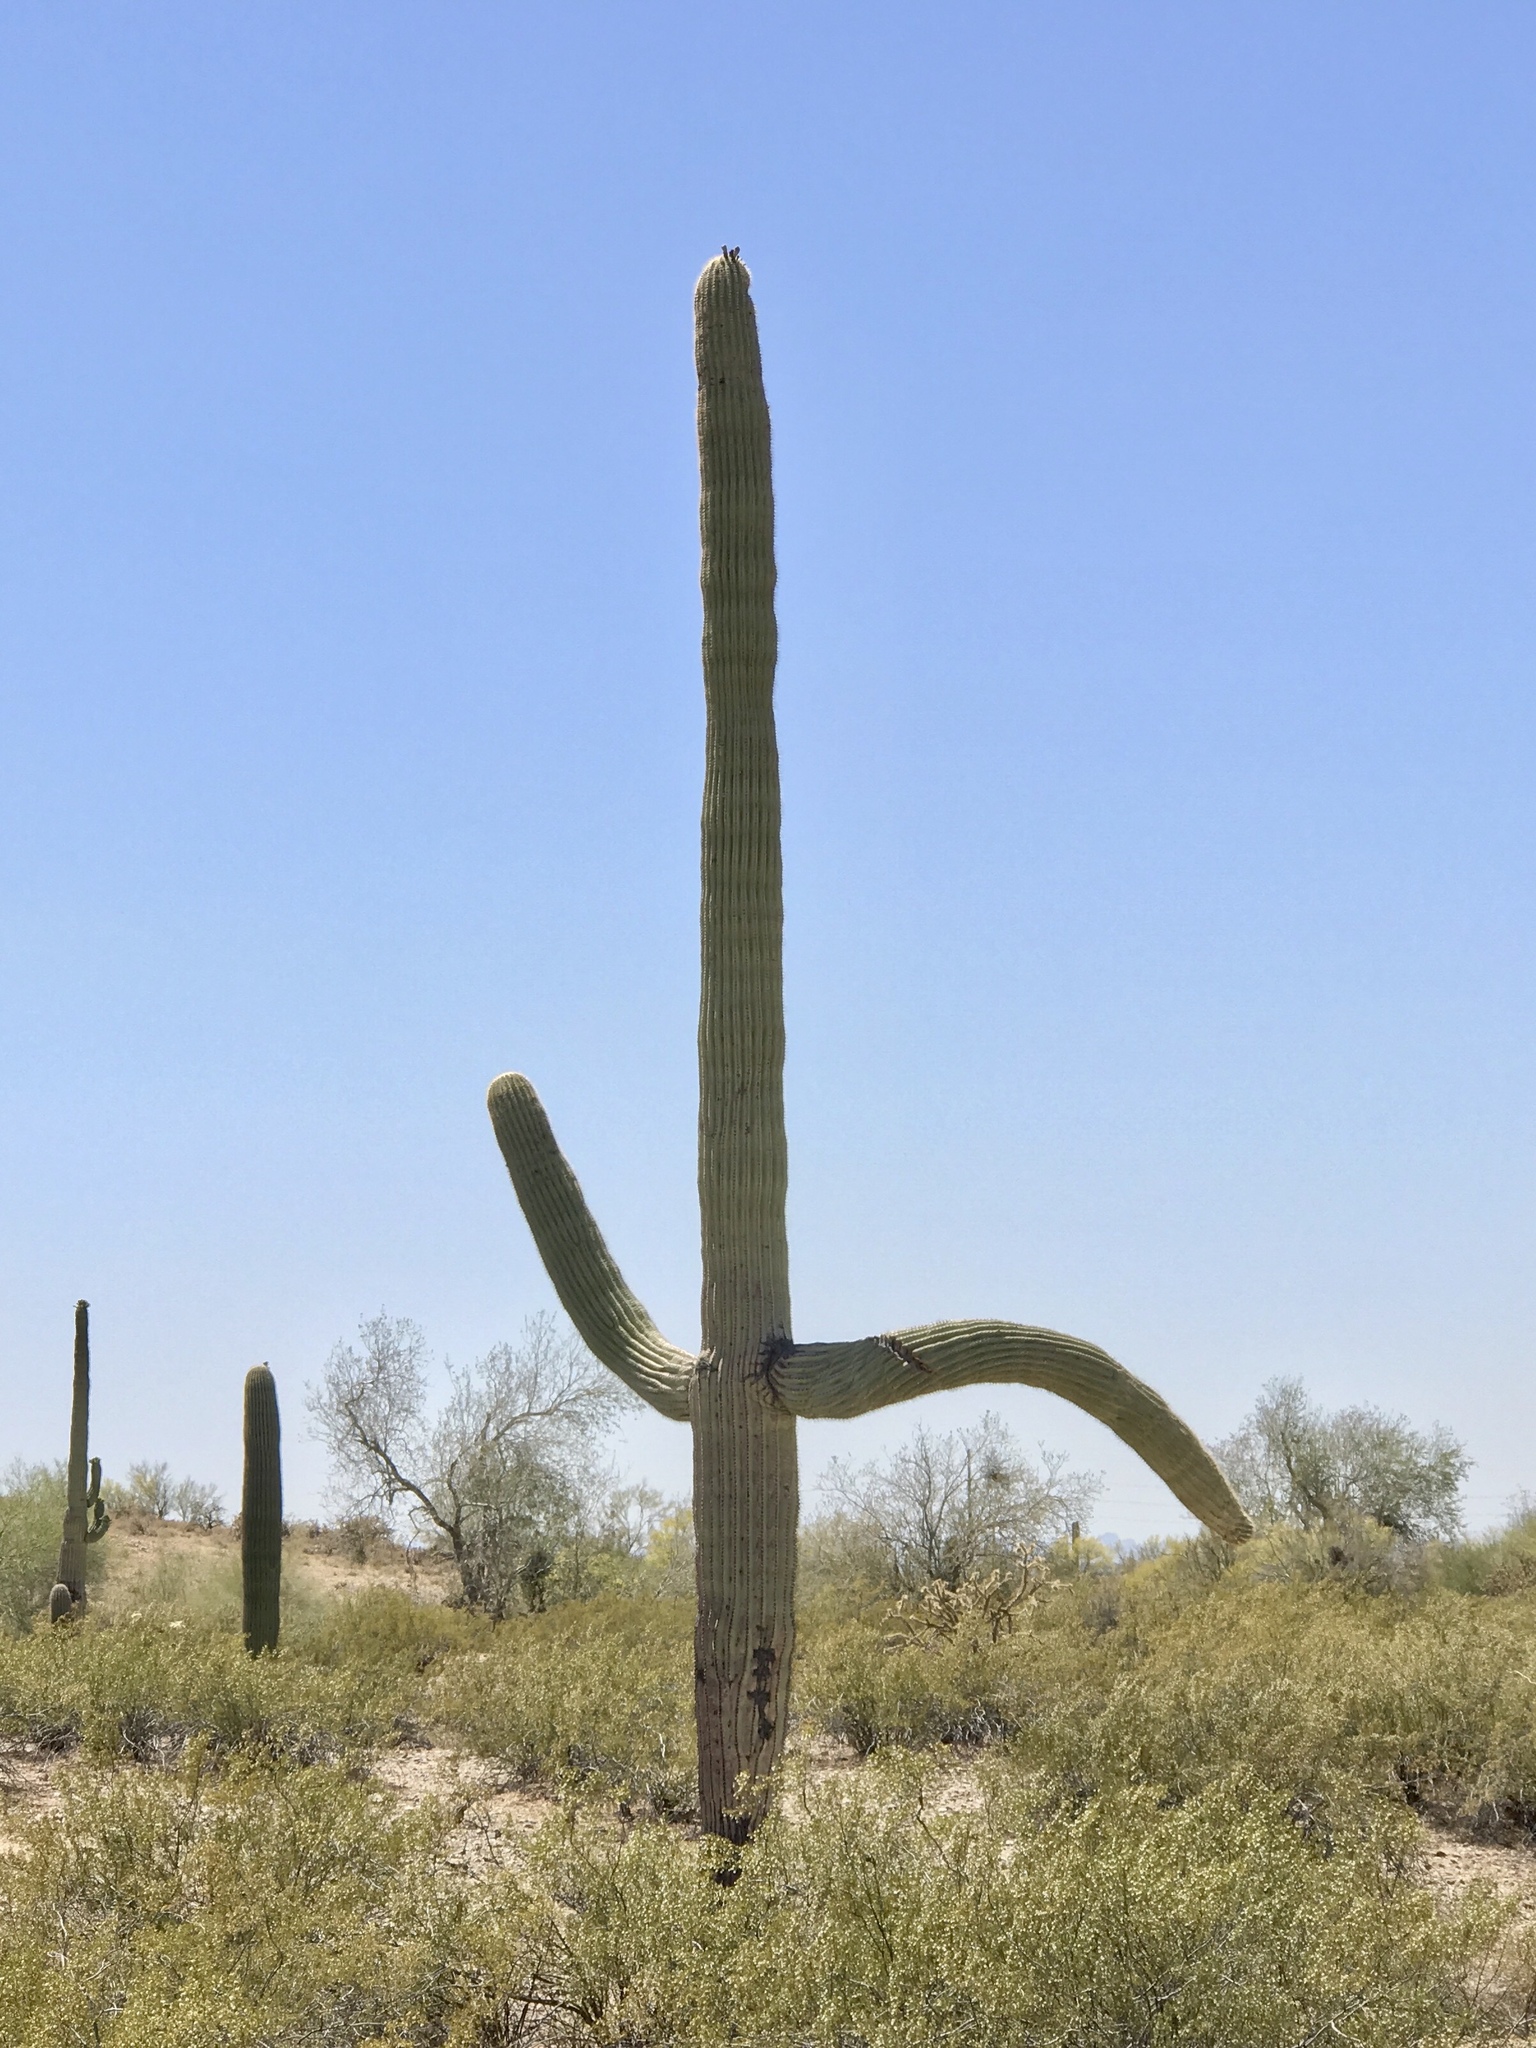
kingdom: Plantae
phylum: Tracheophyta
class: Magnoliopsida
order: Caryophyllales
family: Cactaceae
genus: Carnegiea
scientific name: Carnegiea gigantea
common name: Saguaro
